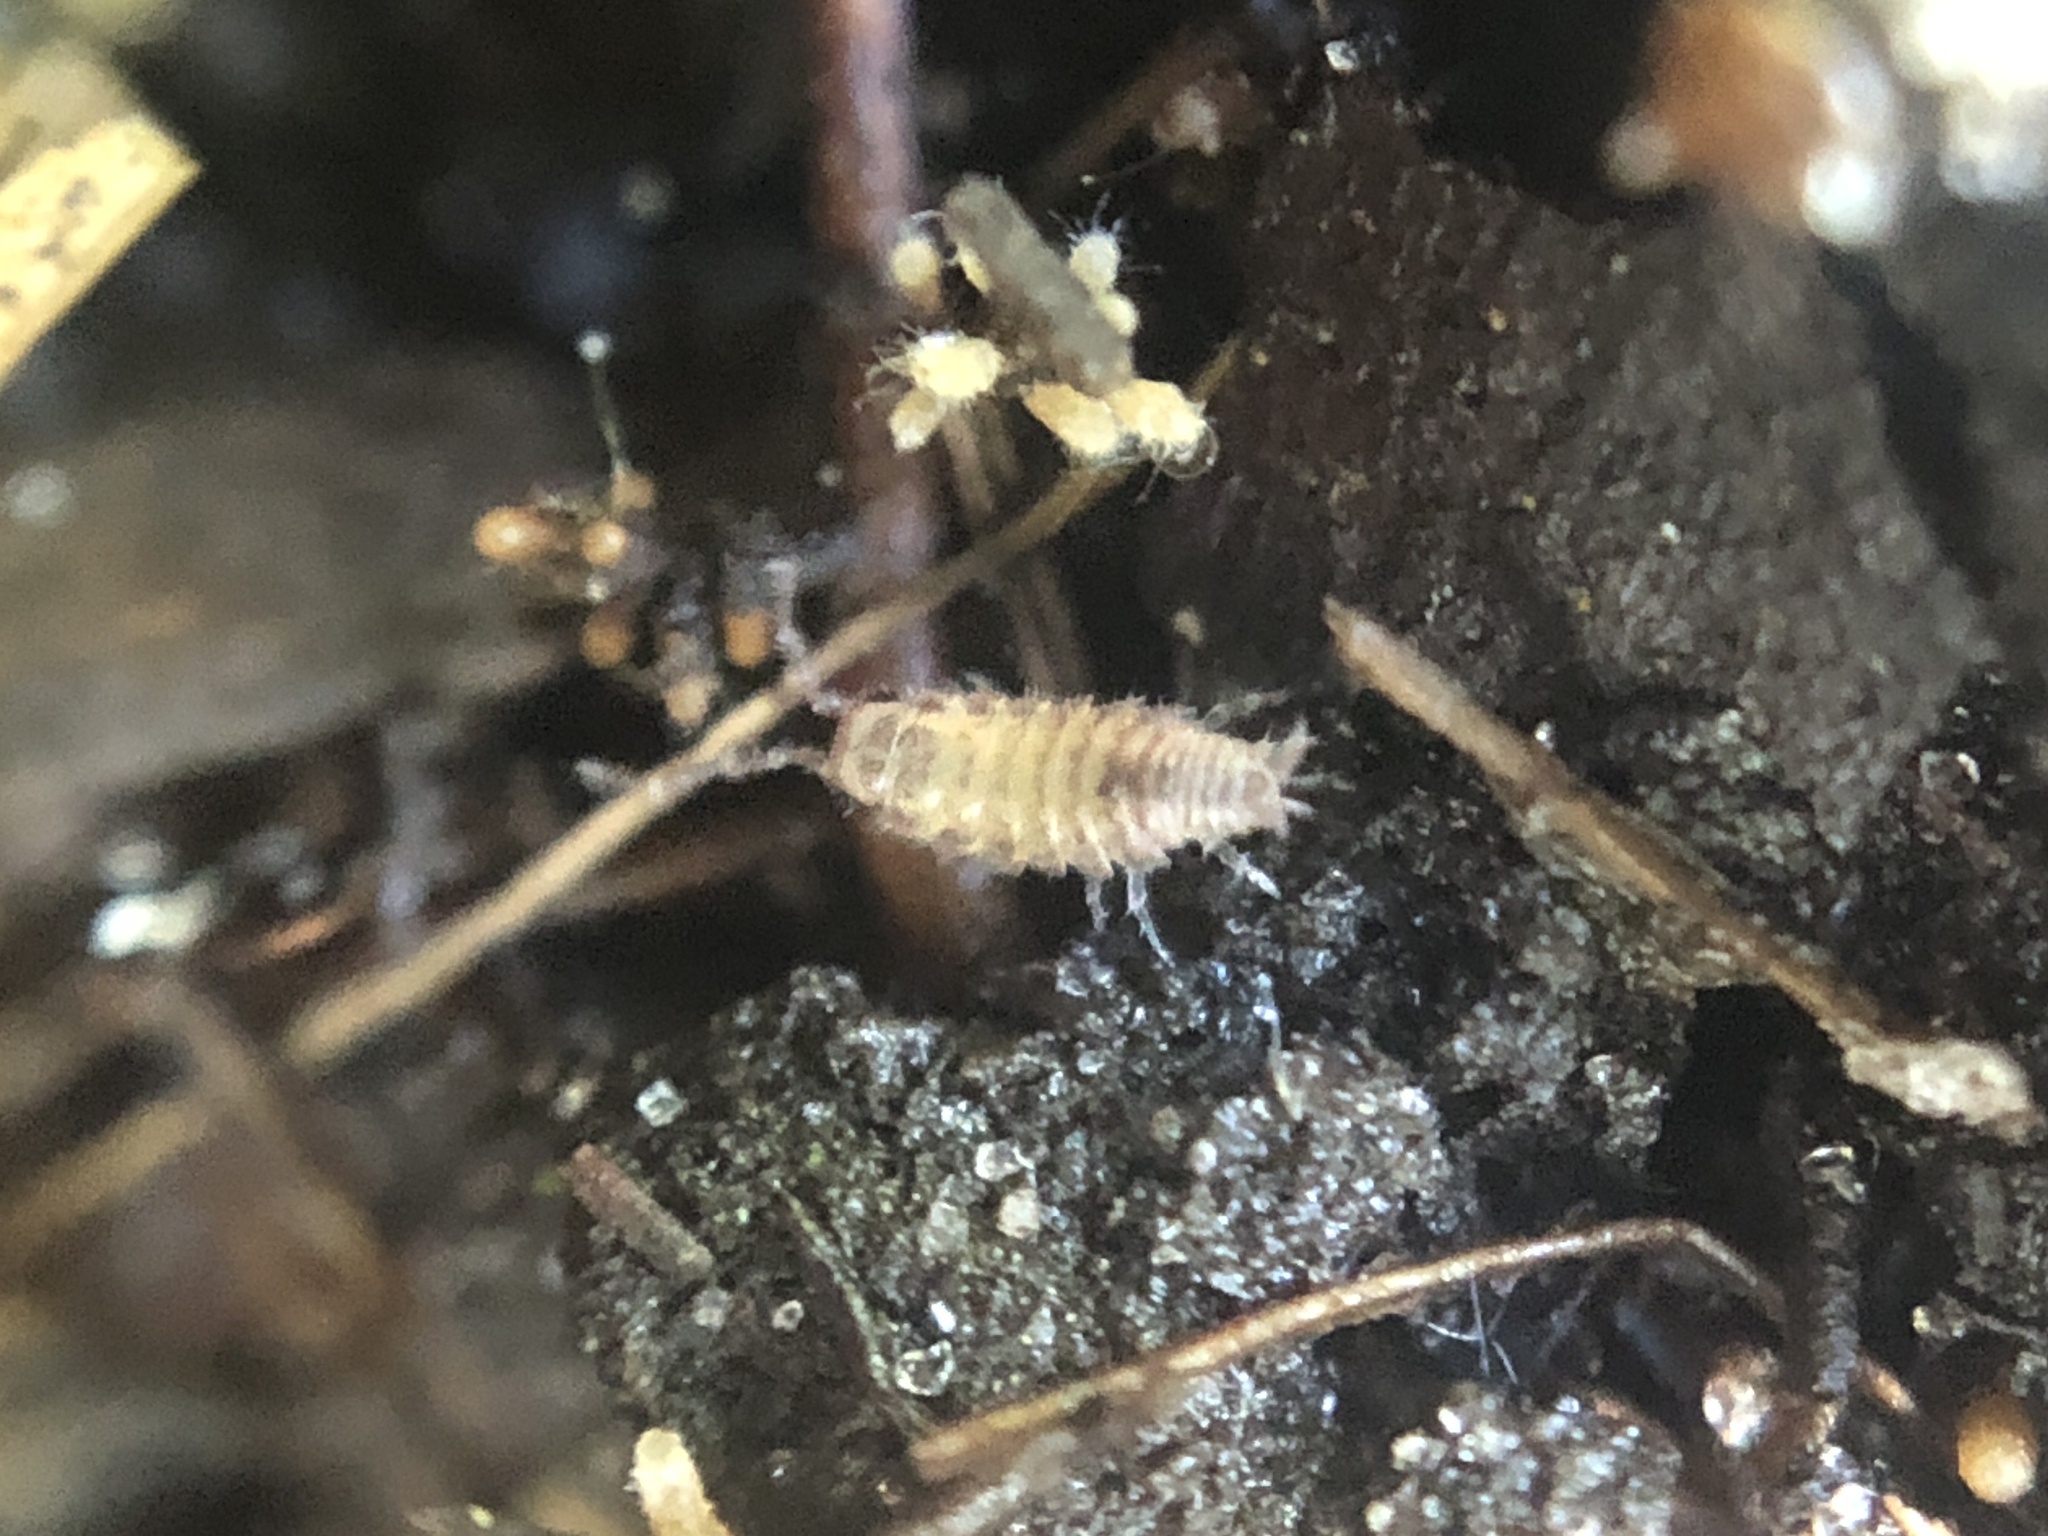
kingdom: Animalia
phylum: Arthropoda
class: Malacostraca
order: Isopoda
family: Philosciidae
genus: Atlantoscia
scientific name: Atlantoscia floridana
